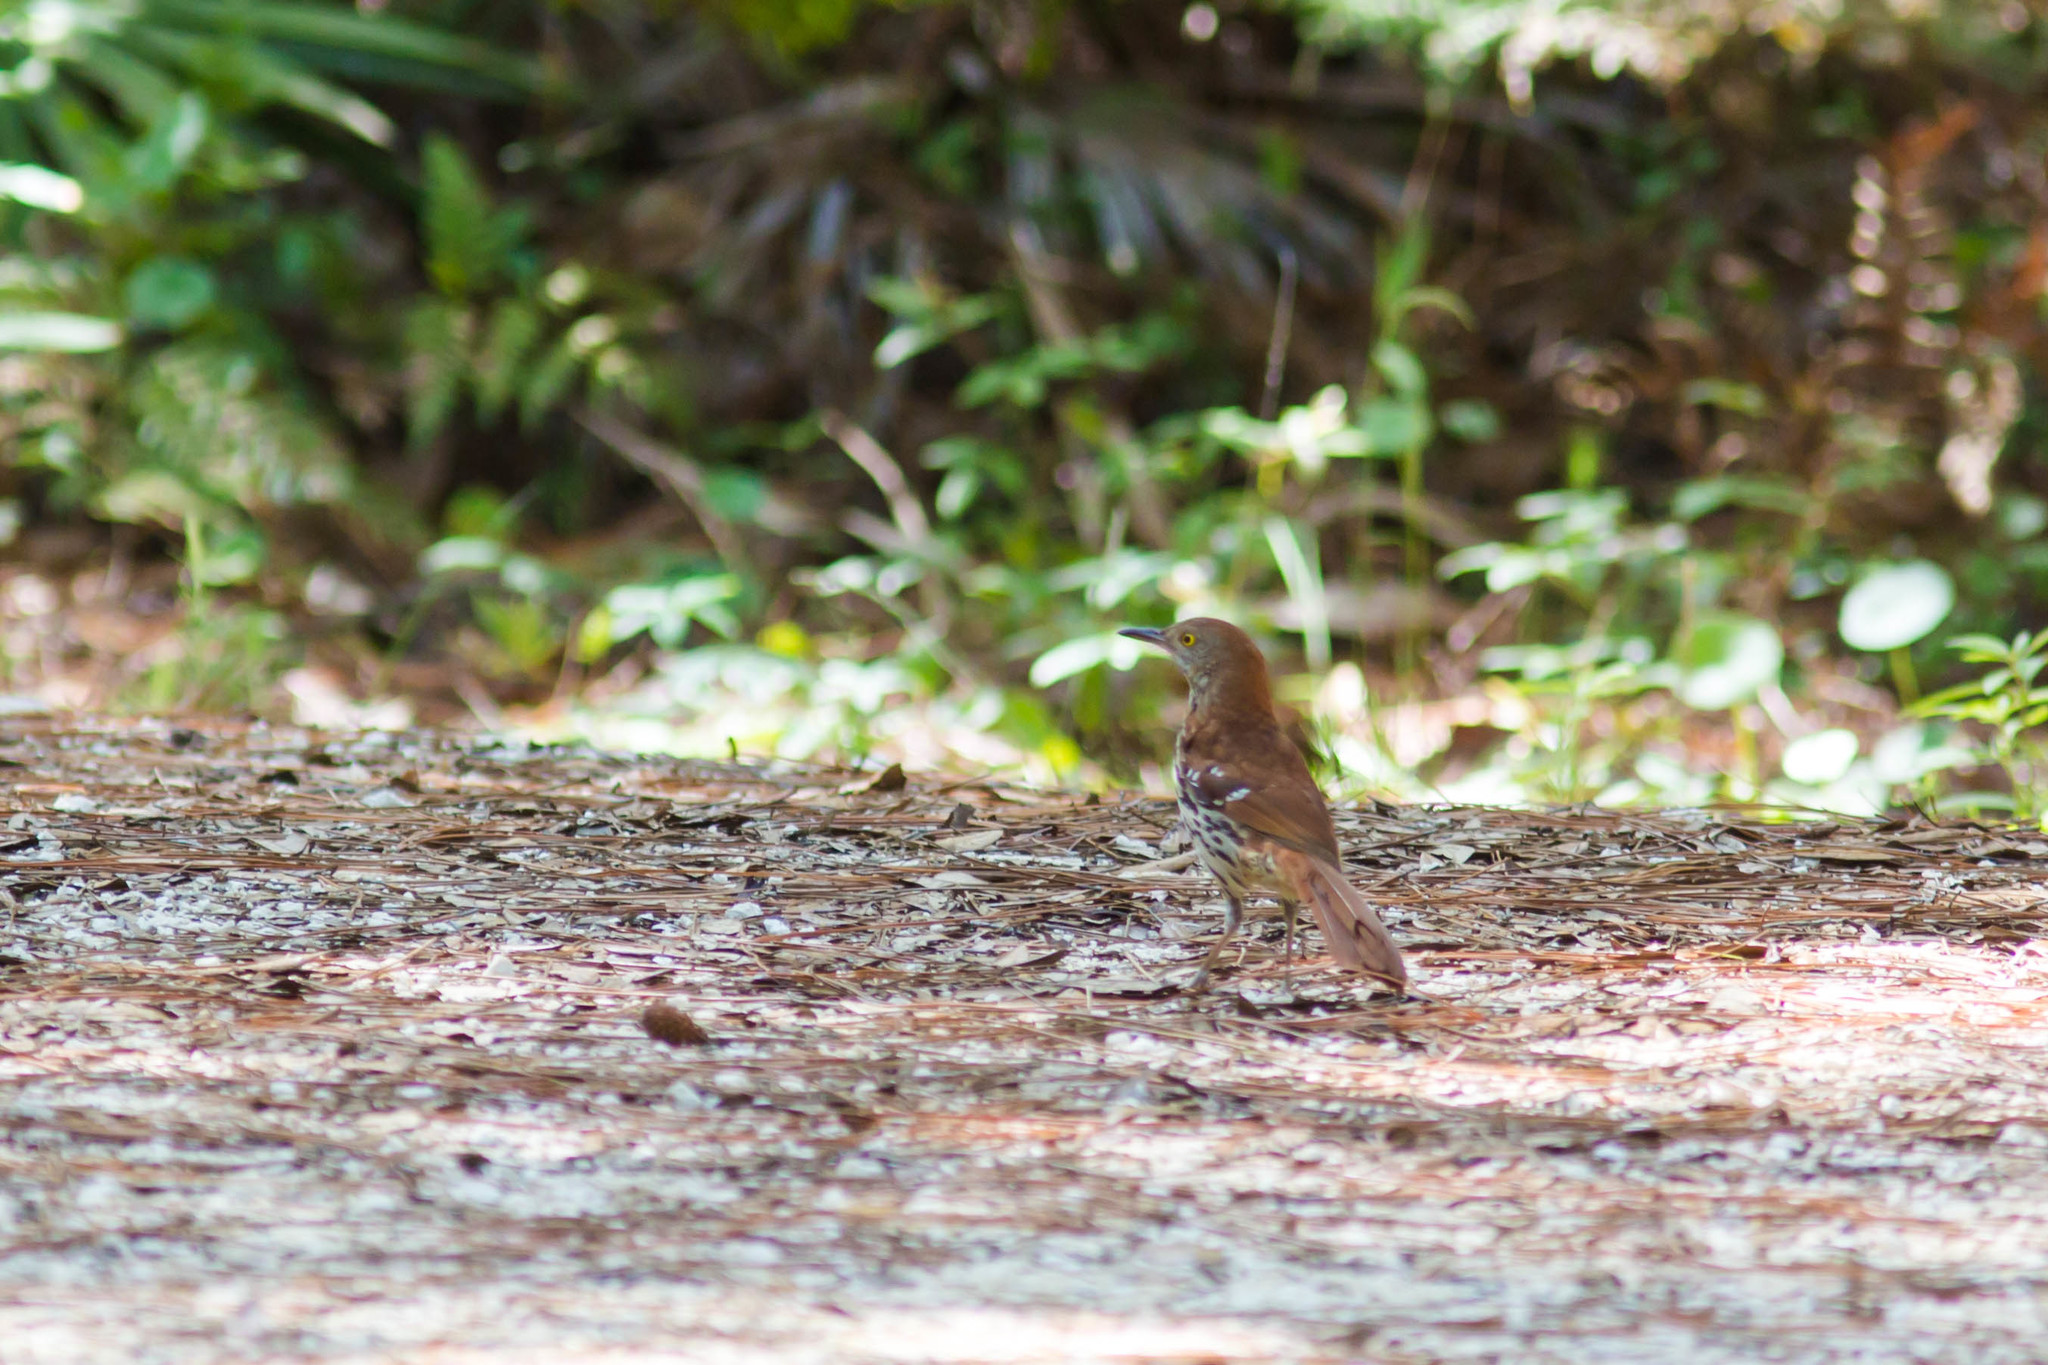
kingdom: Animalia
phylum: Chordata
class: Aves
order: Passeriformes
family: Mimidae
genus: Toxostoma
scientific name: Toxostoma rufum
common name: Brown thrasher
